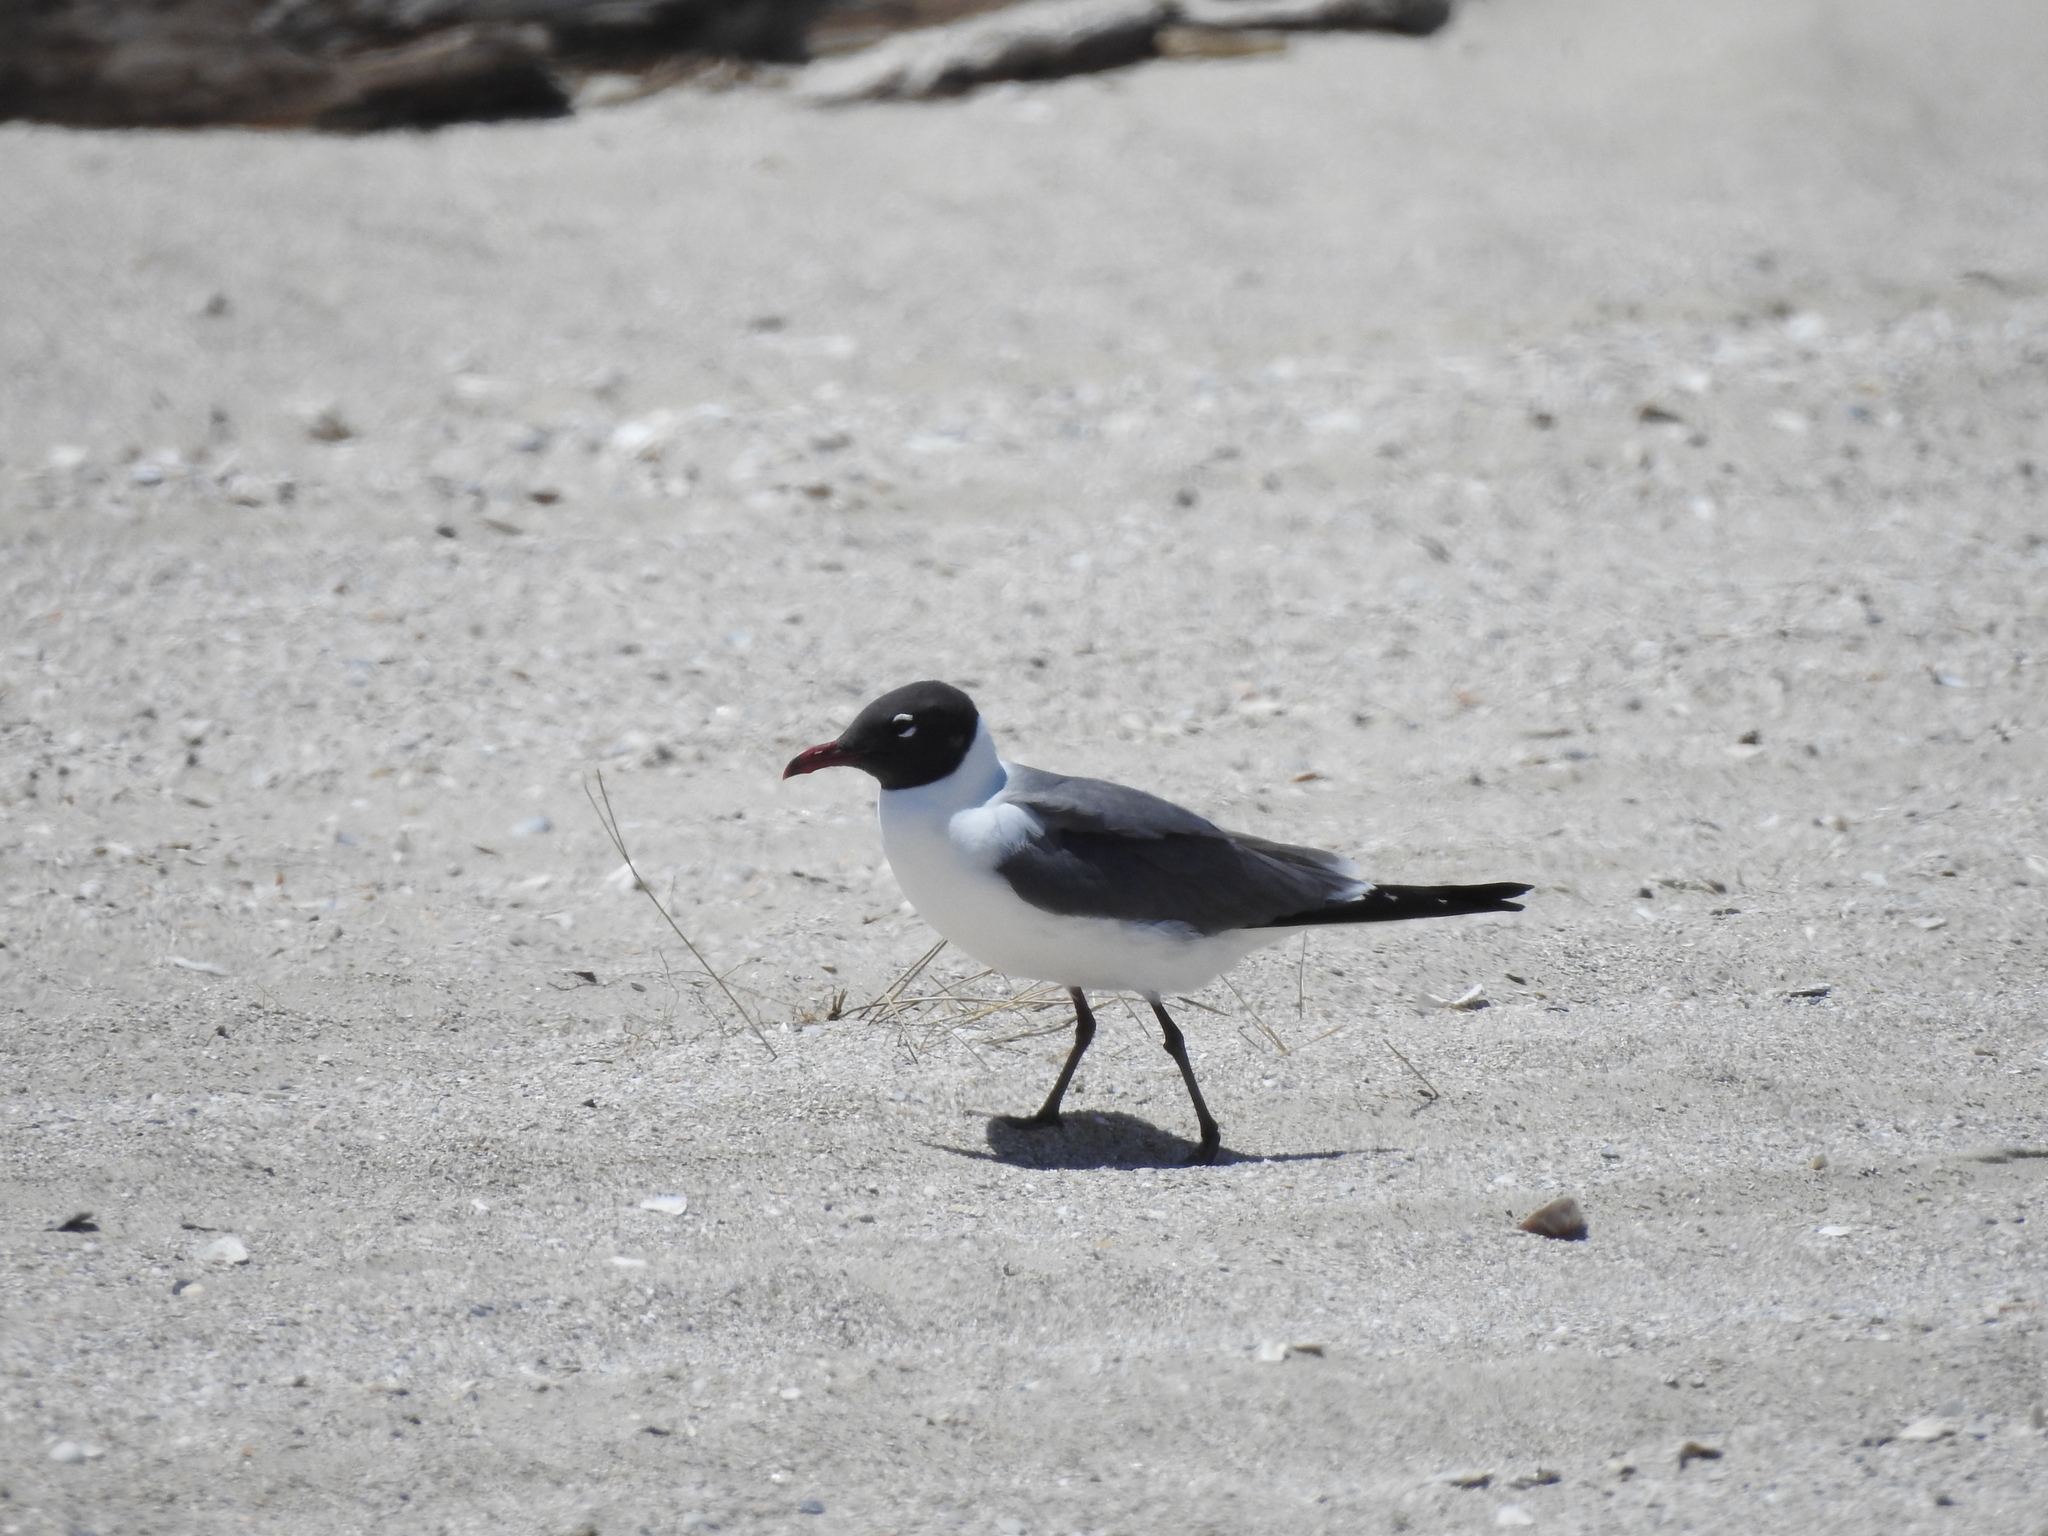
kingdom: Animalia
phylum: Chordata
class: Aves
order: Charadriiformes
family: Laridae
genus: Leucophaeus
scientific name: Leucophaeus atricilla
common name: Laughing gull
